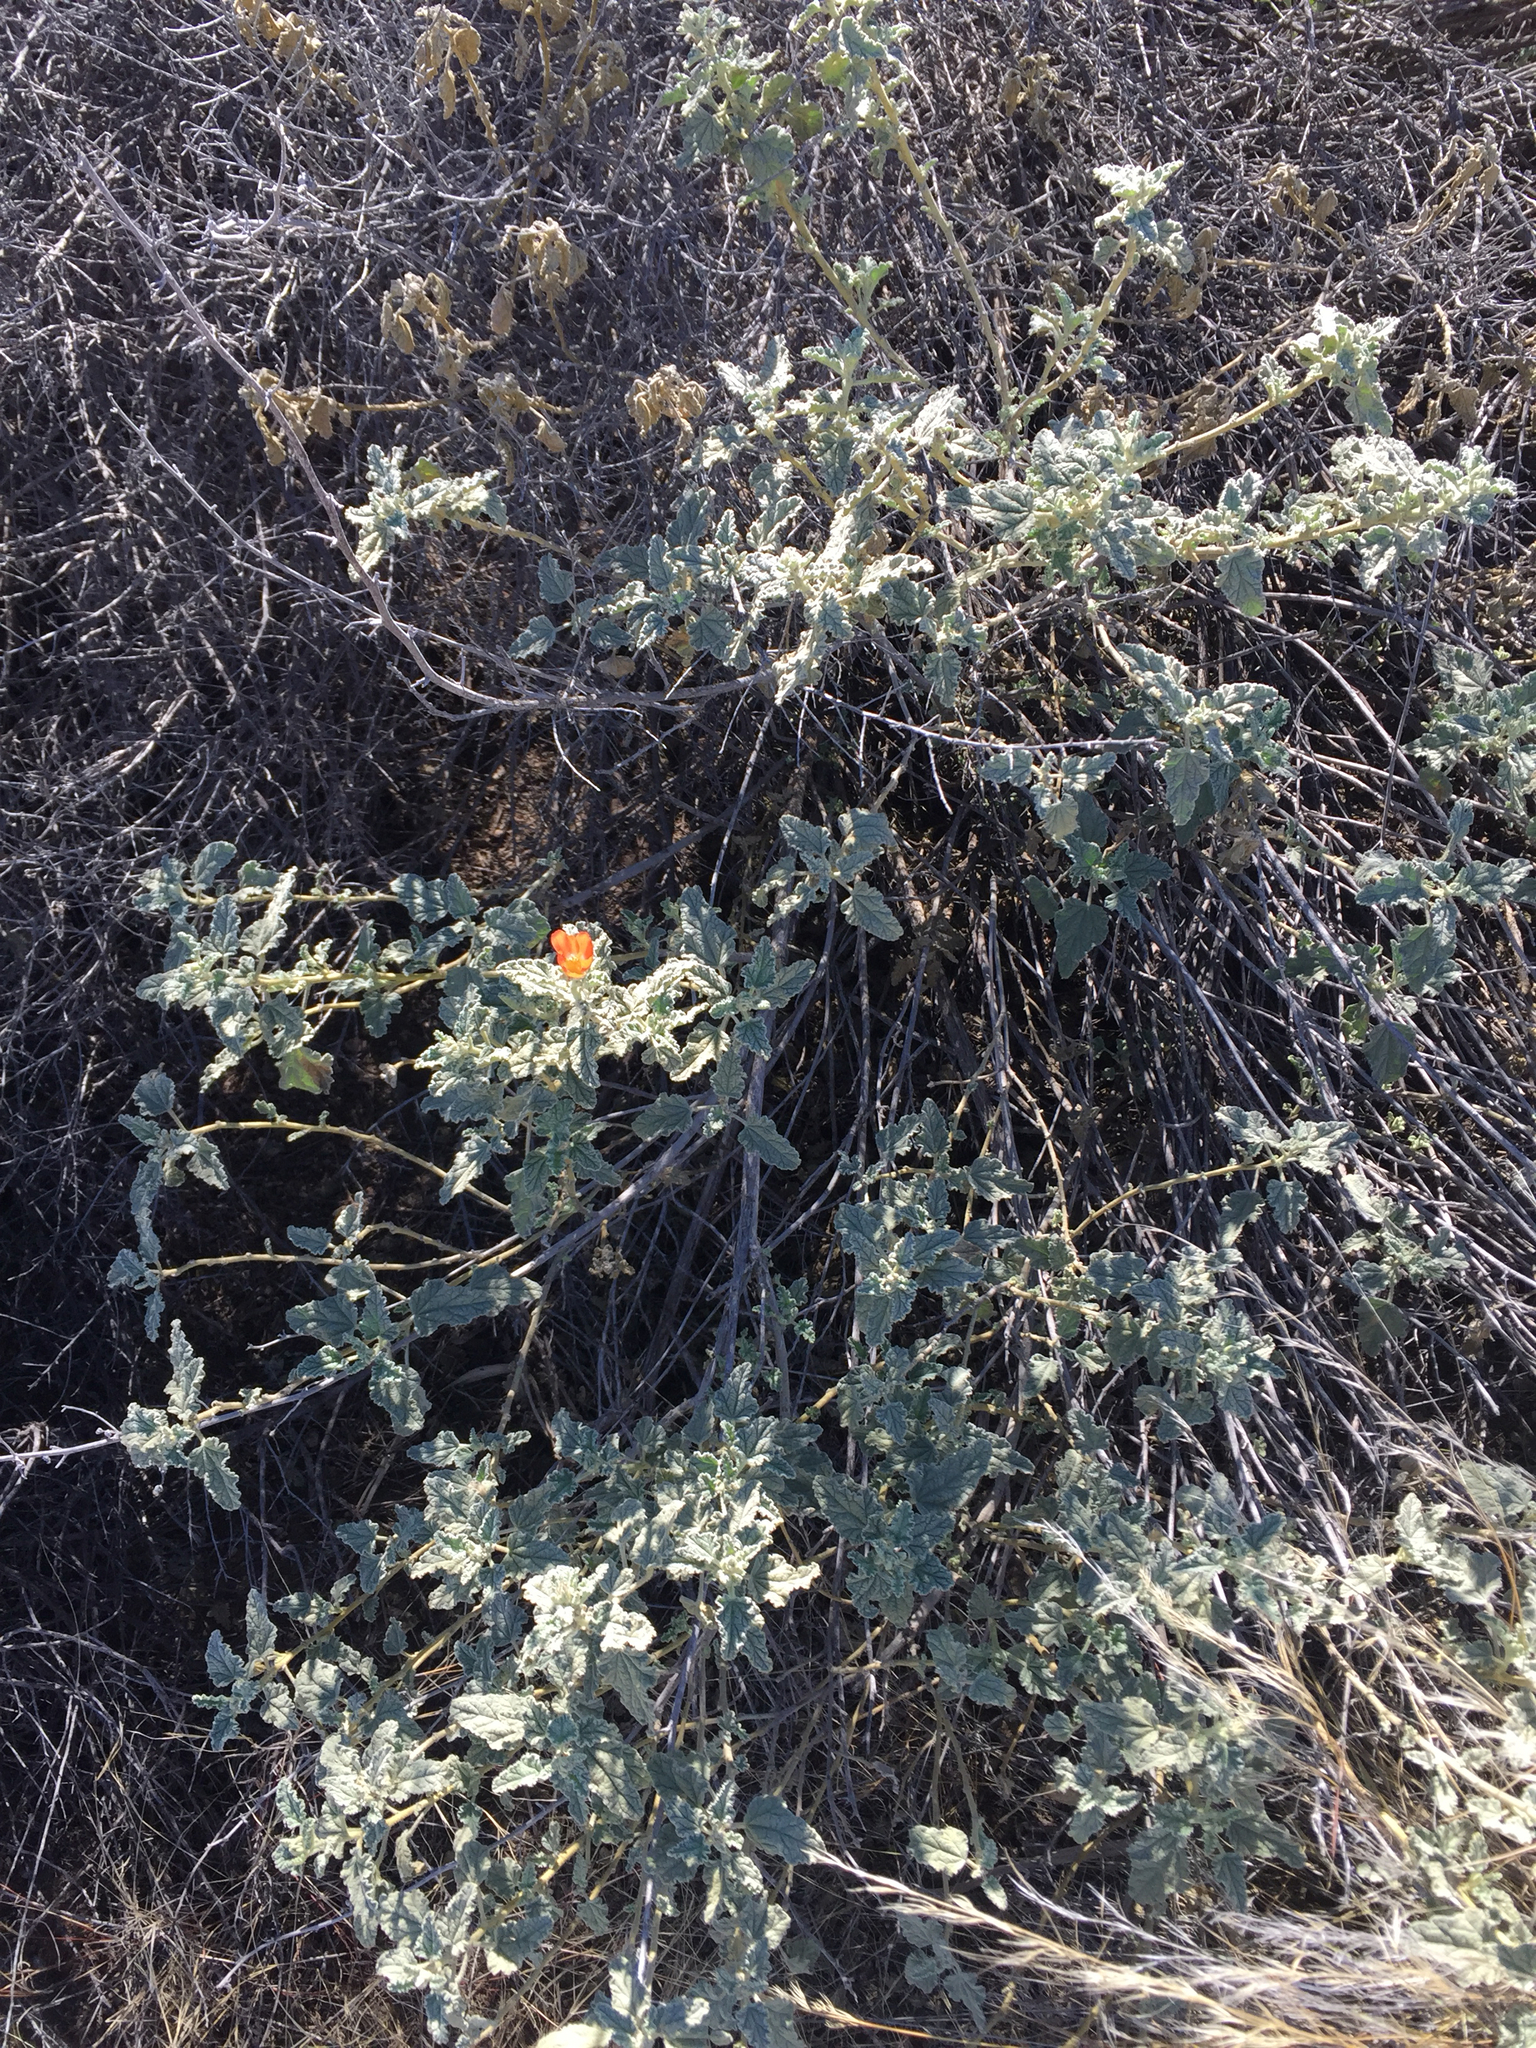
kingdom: Plantae
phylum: Tracheophyta
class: Magnoliopsida
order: Malvales
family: Malvaceae
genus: Sphaeralcea
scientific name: Sphaeralcea ambigua
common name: Apricot globe-mallow
